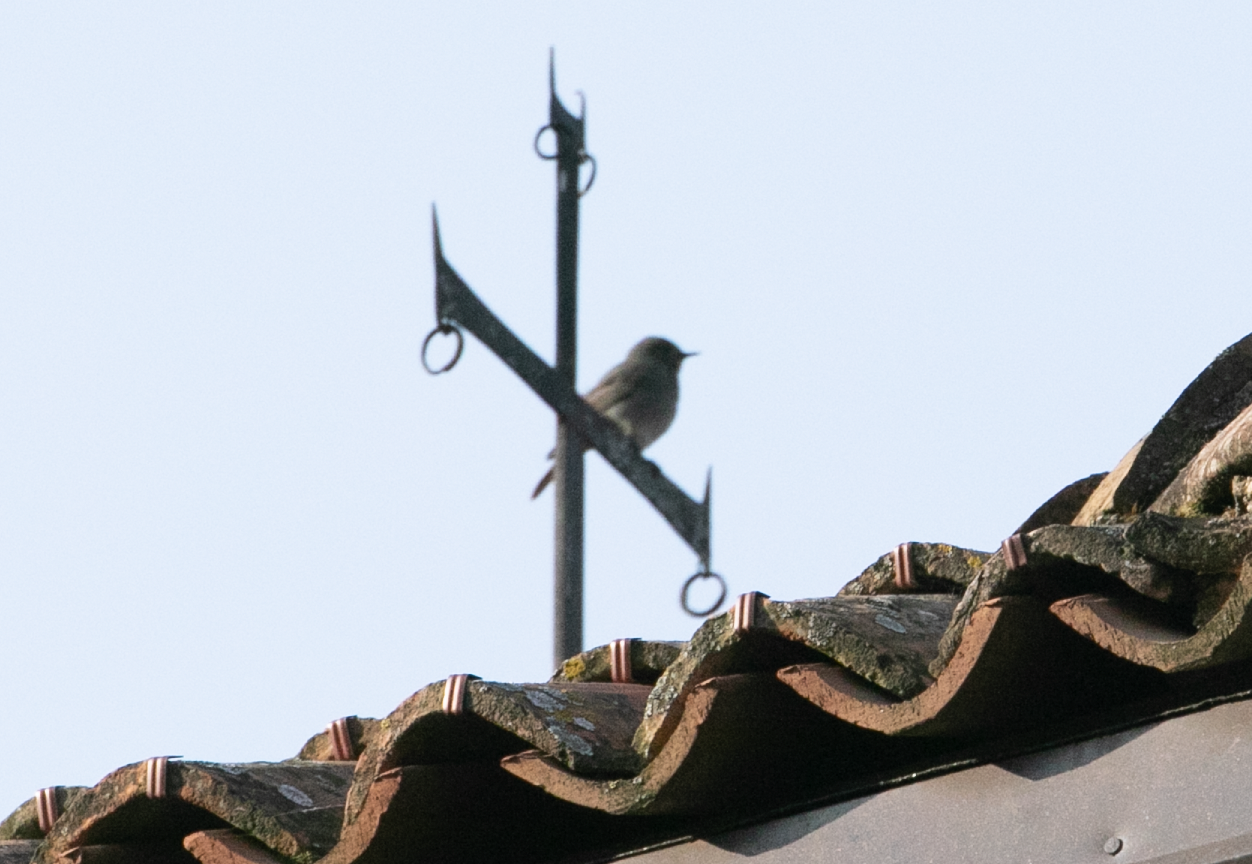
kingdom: Animalia
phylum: Chordata
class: Aves
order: Passeriformes
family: Muscicapidae
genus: Phoenicurus
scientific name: Phoenicurus ochruros
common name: Black redstart
